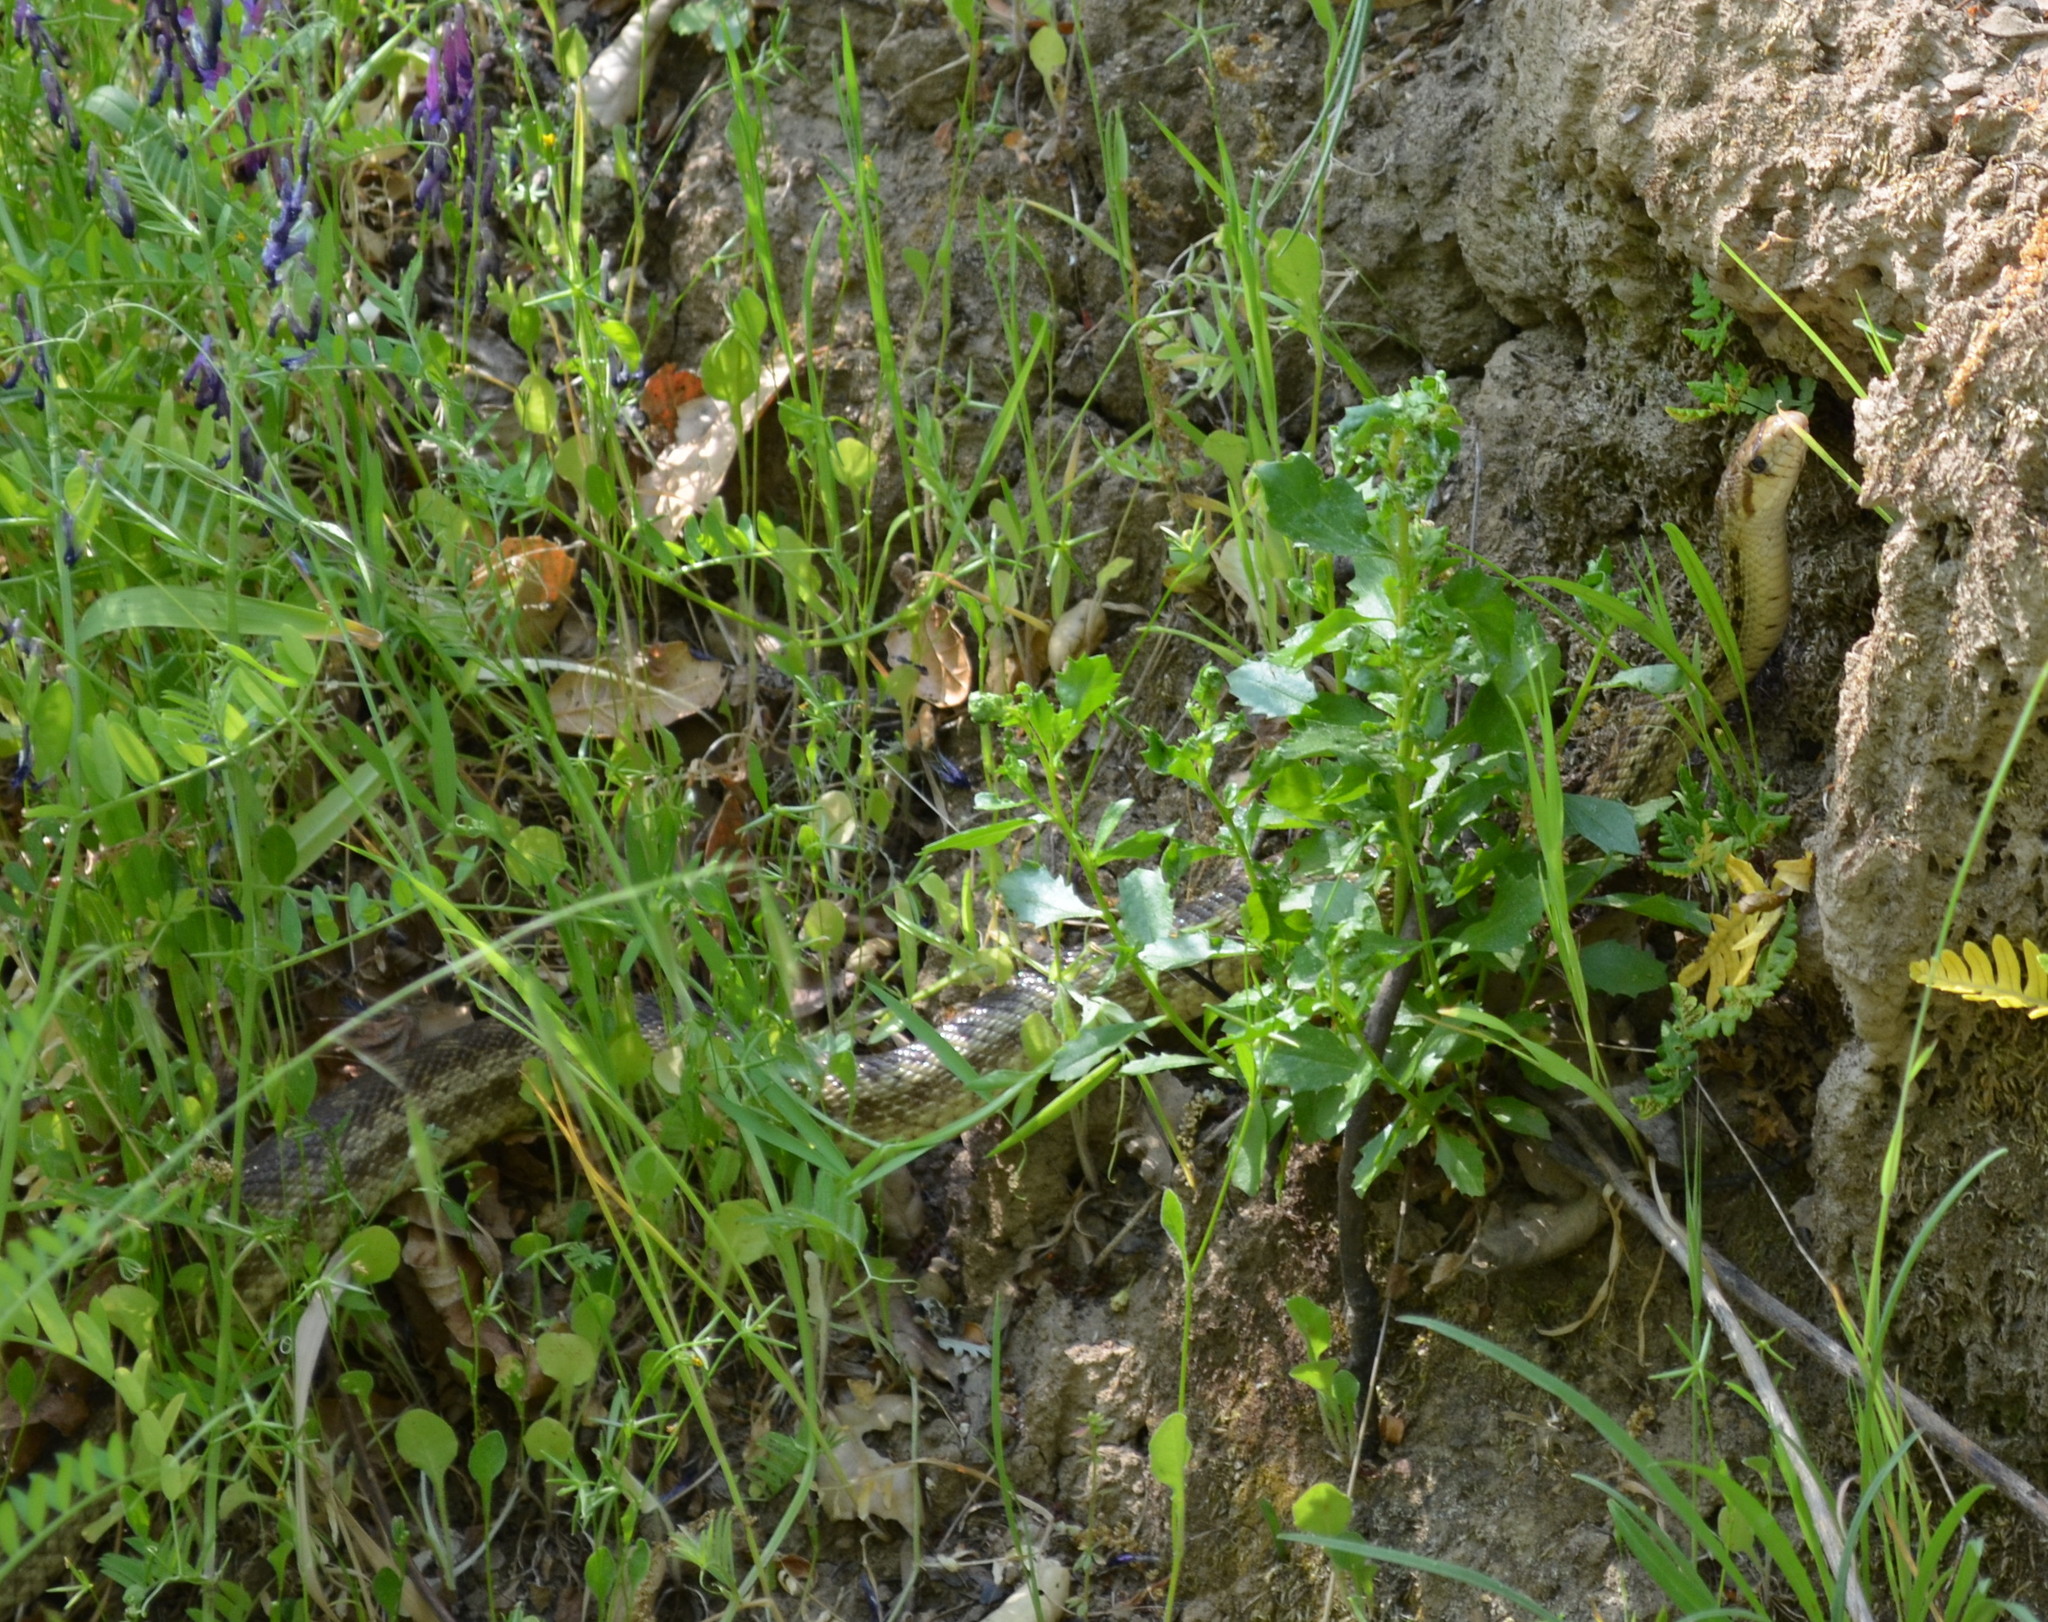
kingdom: Animalia
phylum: Chordata
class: Squamata
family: Colubridae
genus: Pituophis
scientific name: Pituophis catenifer
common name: Gopher snake
